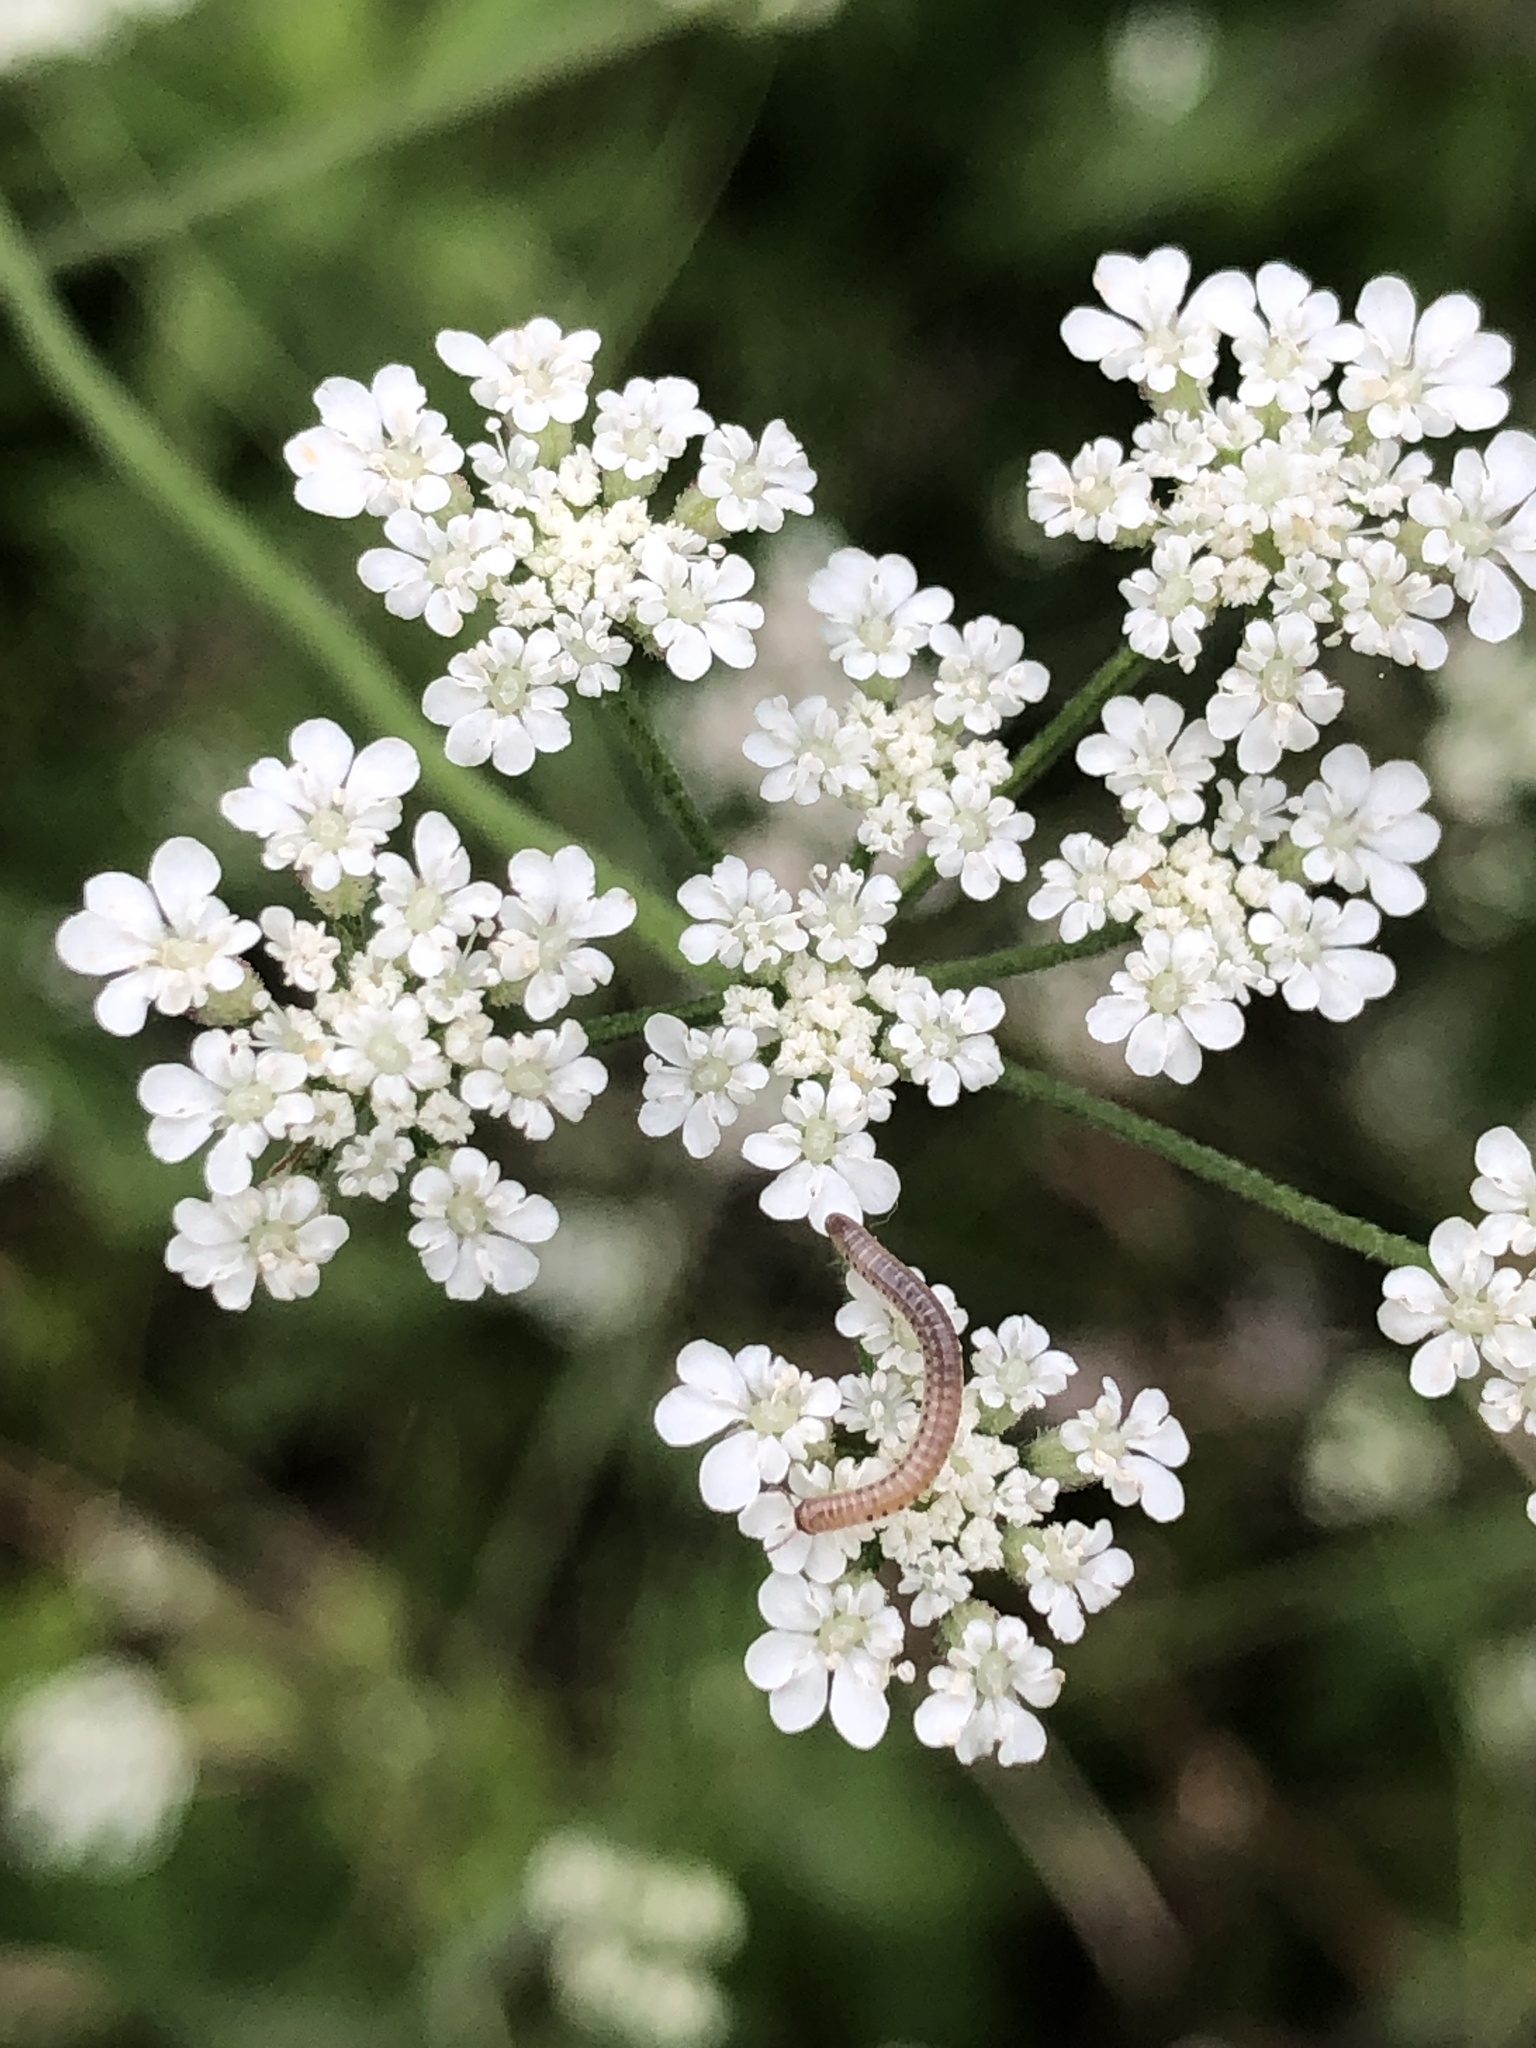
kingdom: Plantae
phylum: Tracheophyta
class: Magnoliopsida
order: Apiales
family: Apiaceae
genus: Torilis
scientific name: Torilis arvensis
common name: Spreading hedge-parsley
